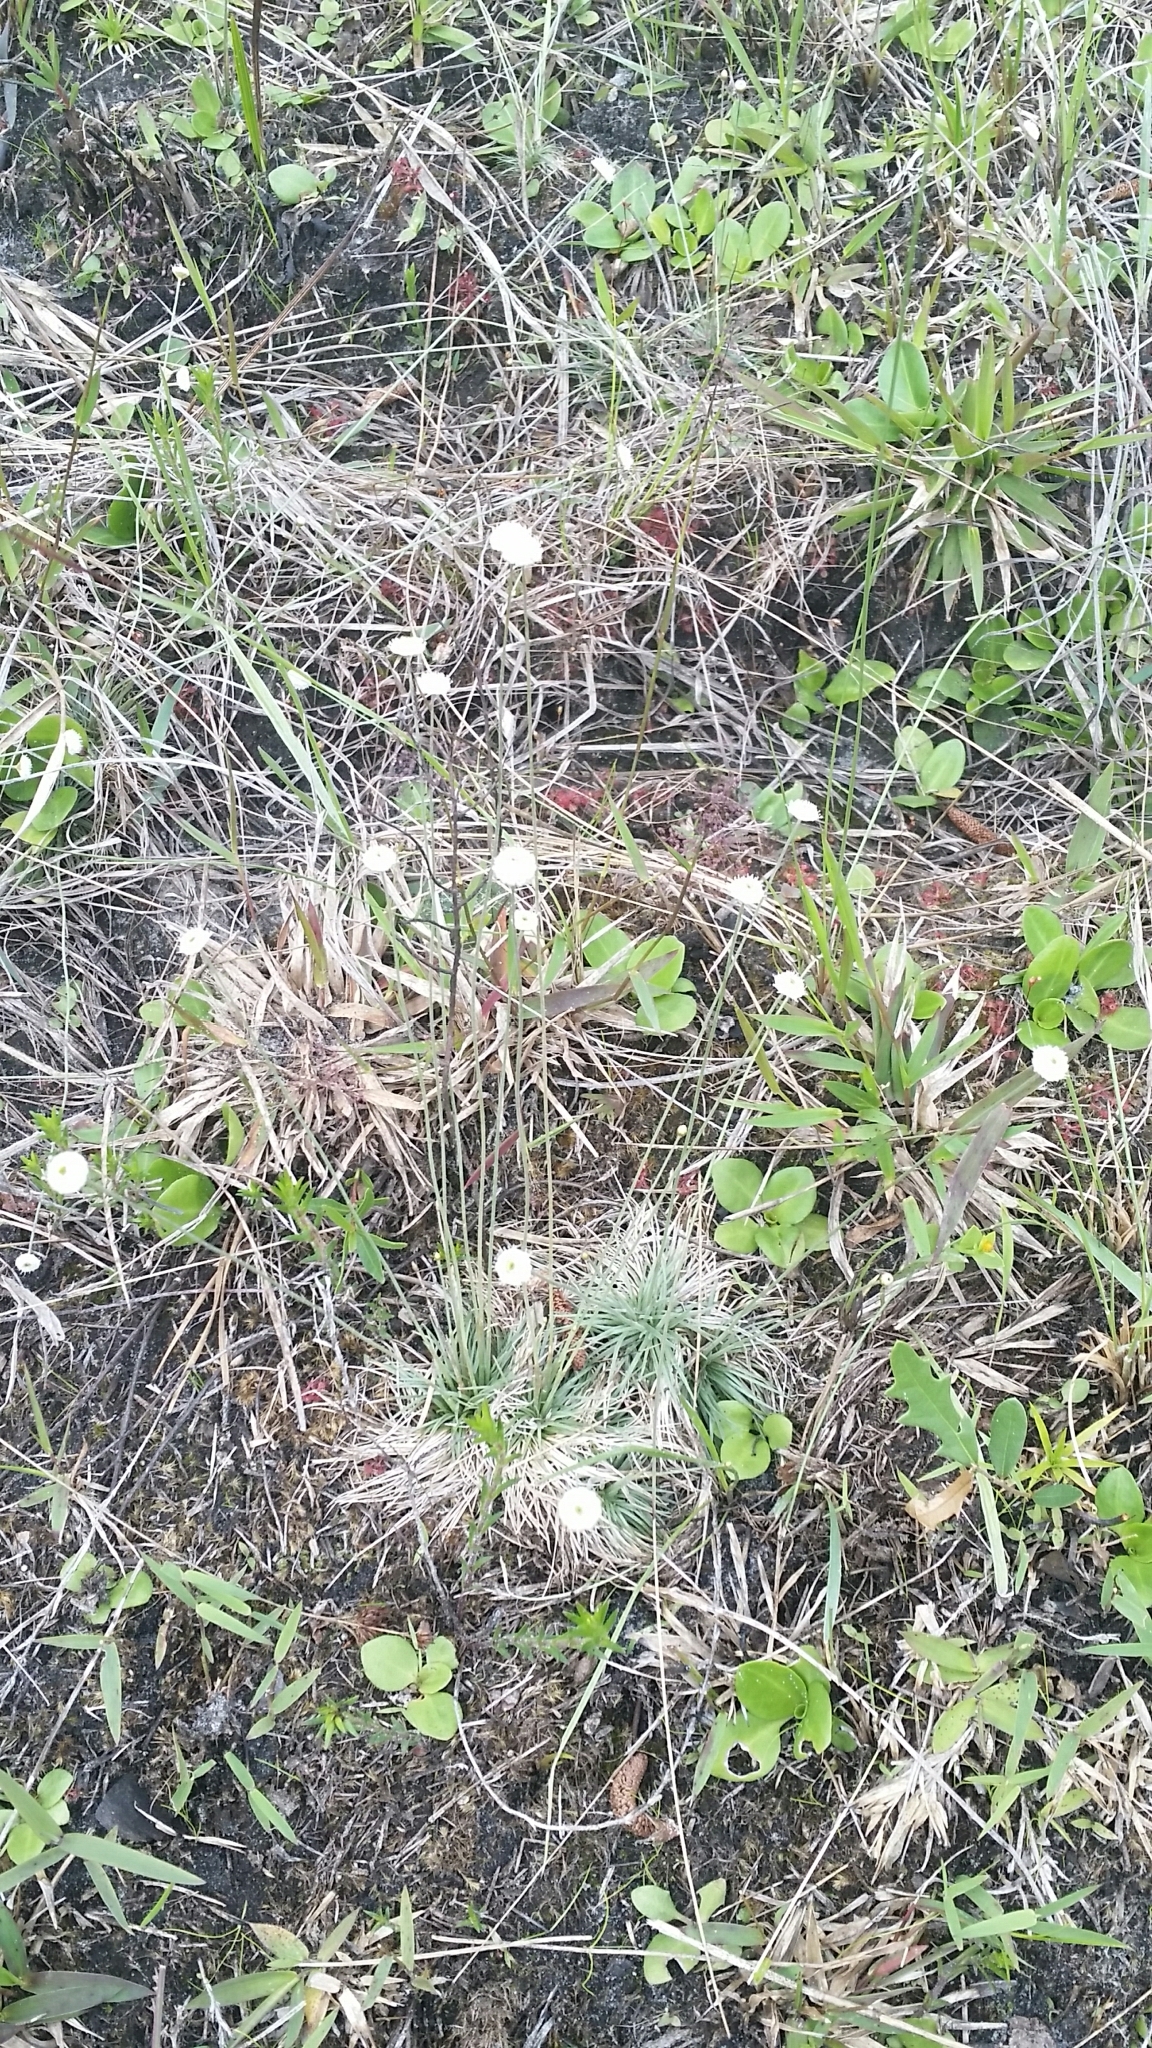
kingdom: Plantae
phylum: Tracheophyta
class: Liliopsida
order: Poales
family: Eriocaulaceae
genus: Syngonanthus
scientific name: Syngonanthus flavidulus
